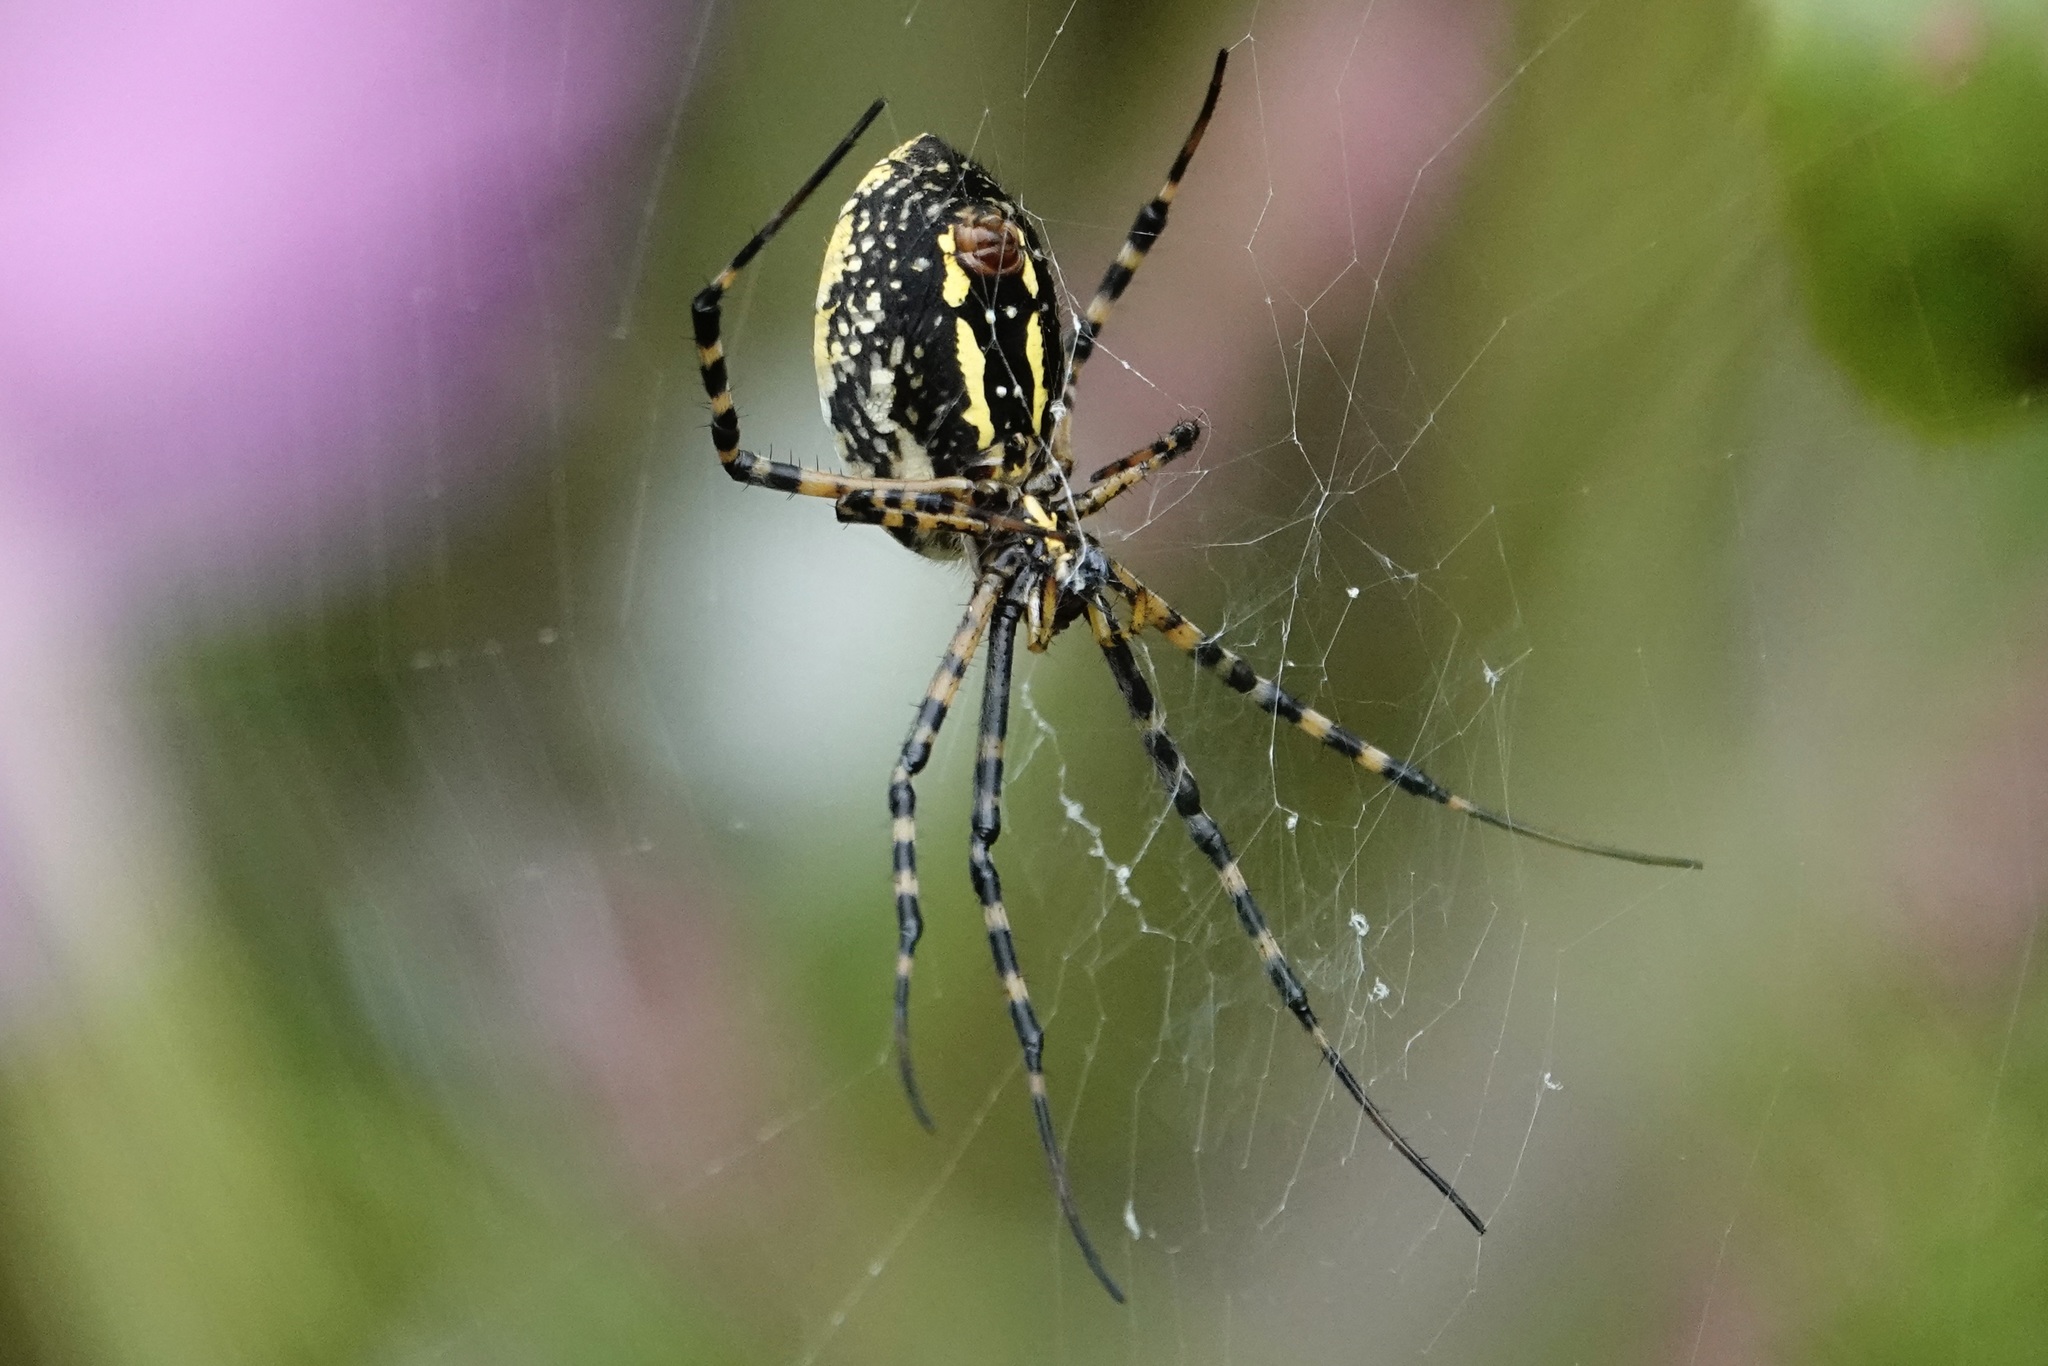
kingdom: Animalia
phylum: Arthropoda
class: Arachnida
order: Araneae
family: Araneidae
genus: Argiope
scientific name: Argiope trifasciata
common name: Banded garden spider
